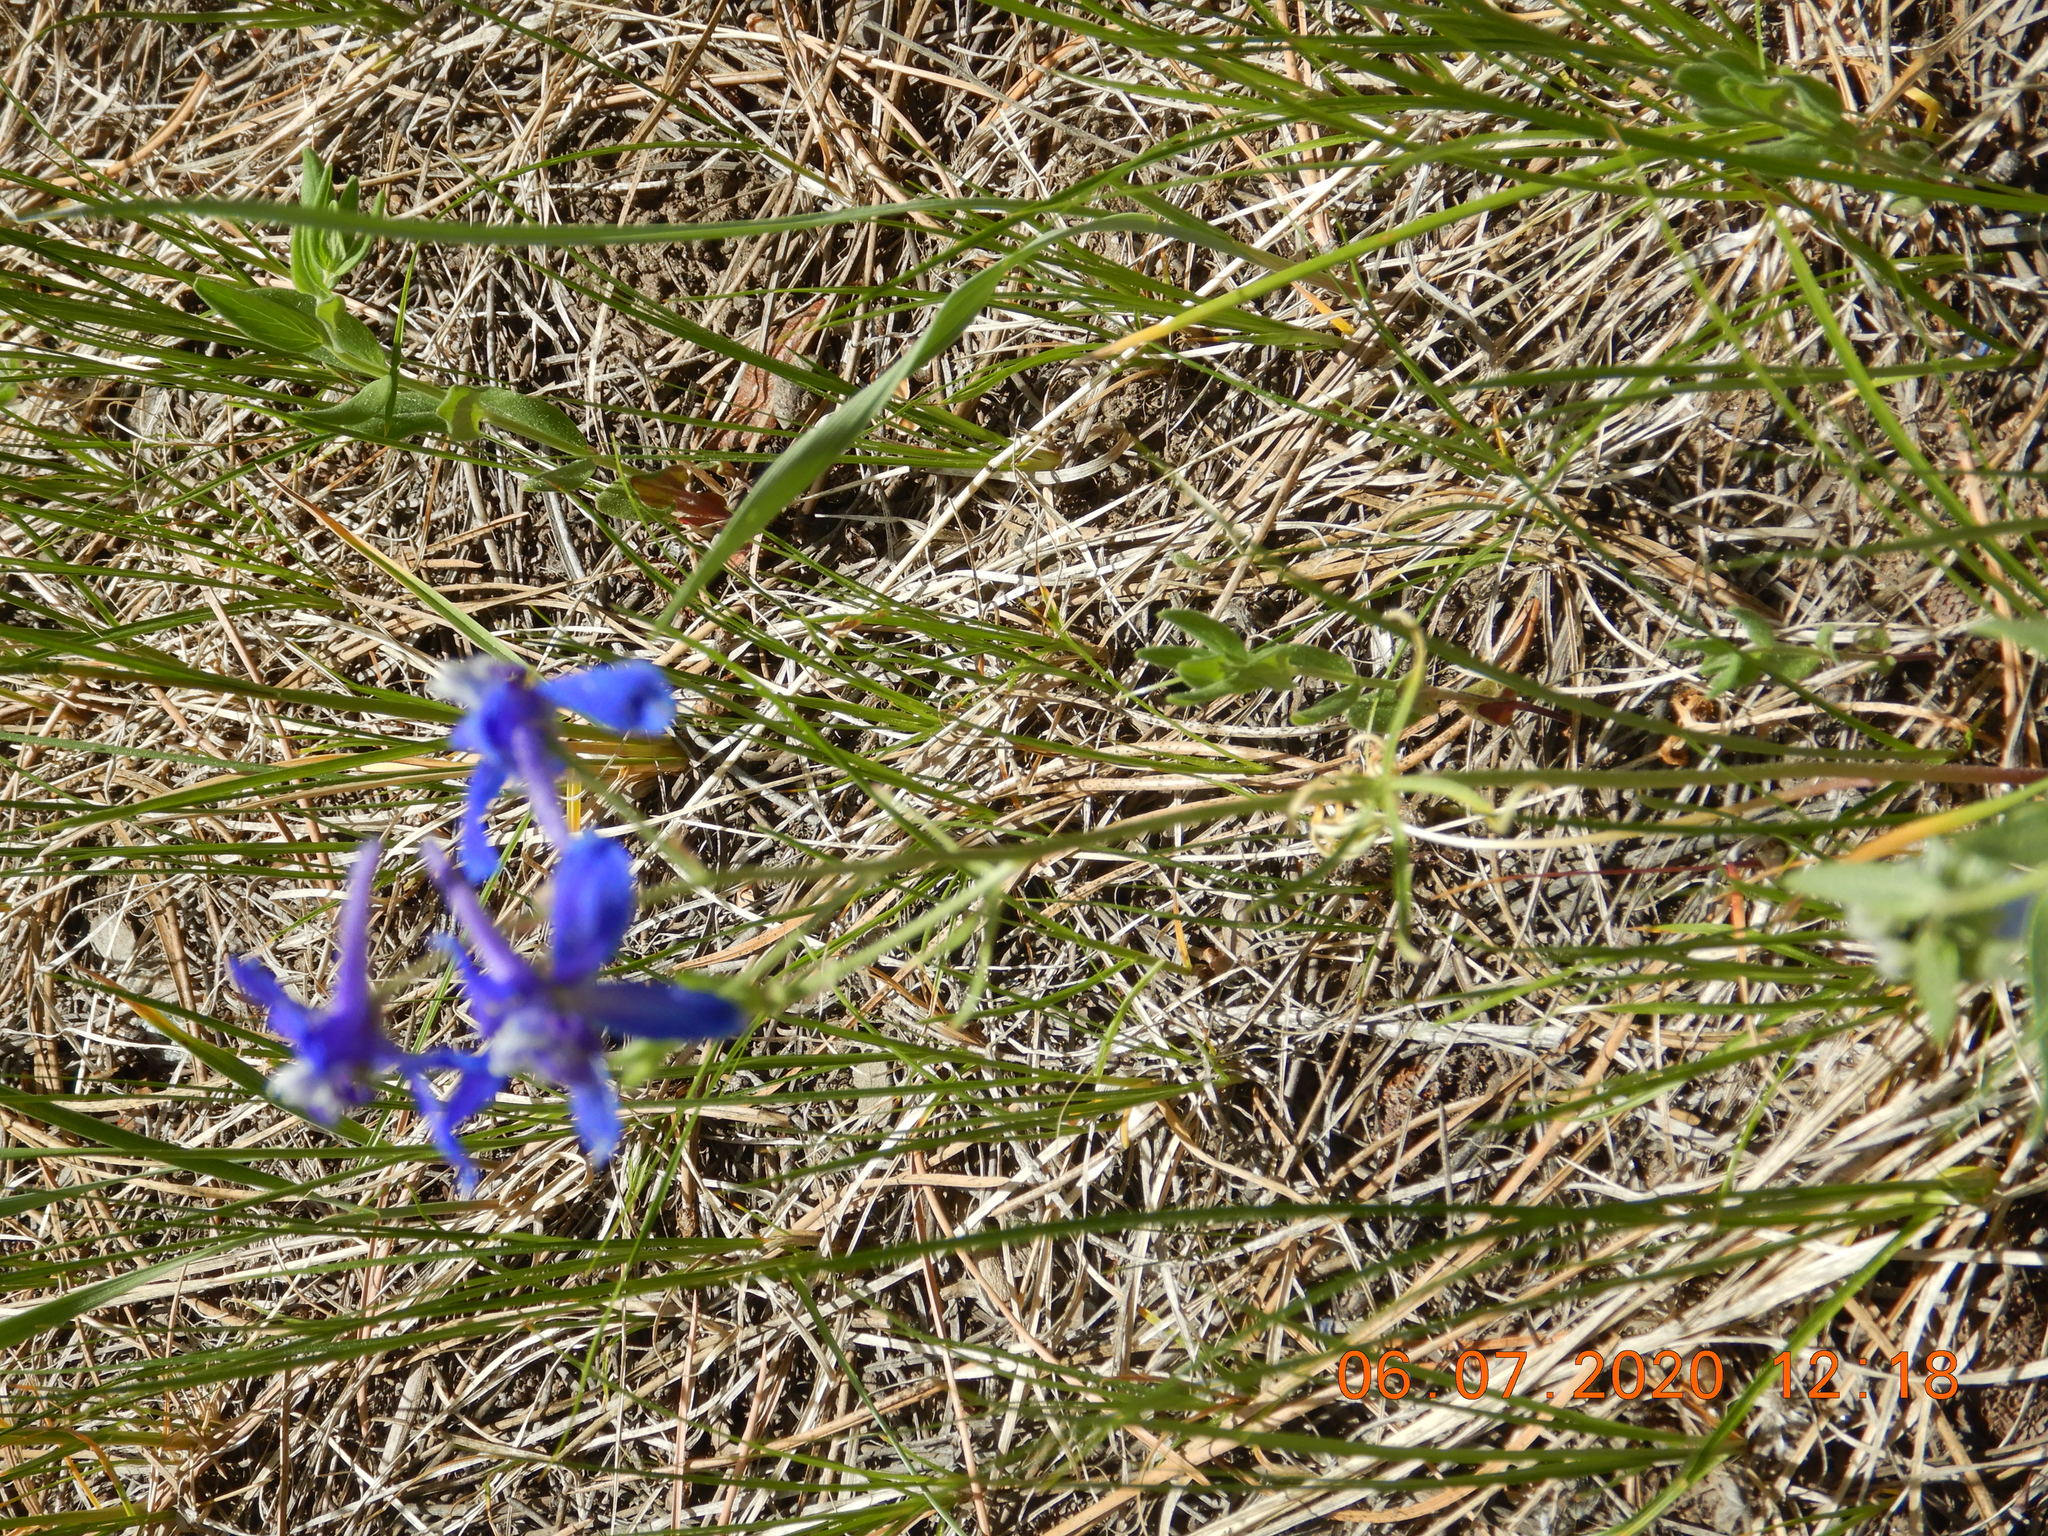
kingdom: Plantae
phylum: Tracheophyta
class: Magnoliopsida
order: Ranunculales
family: Ranunculaceae
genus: Delphinium
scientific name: Delphinium nuttallianum
